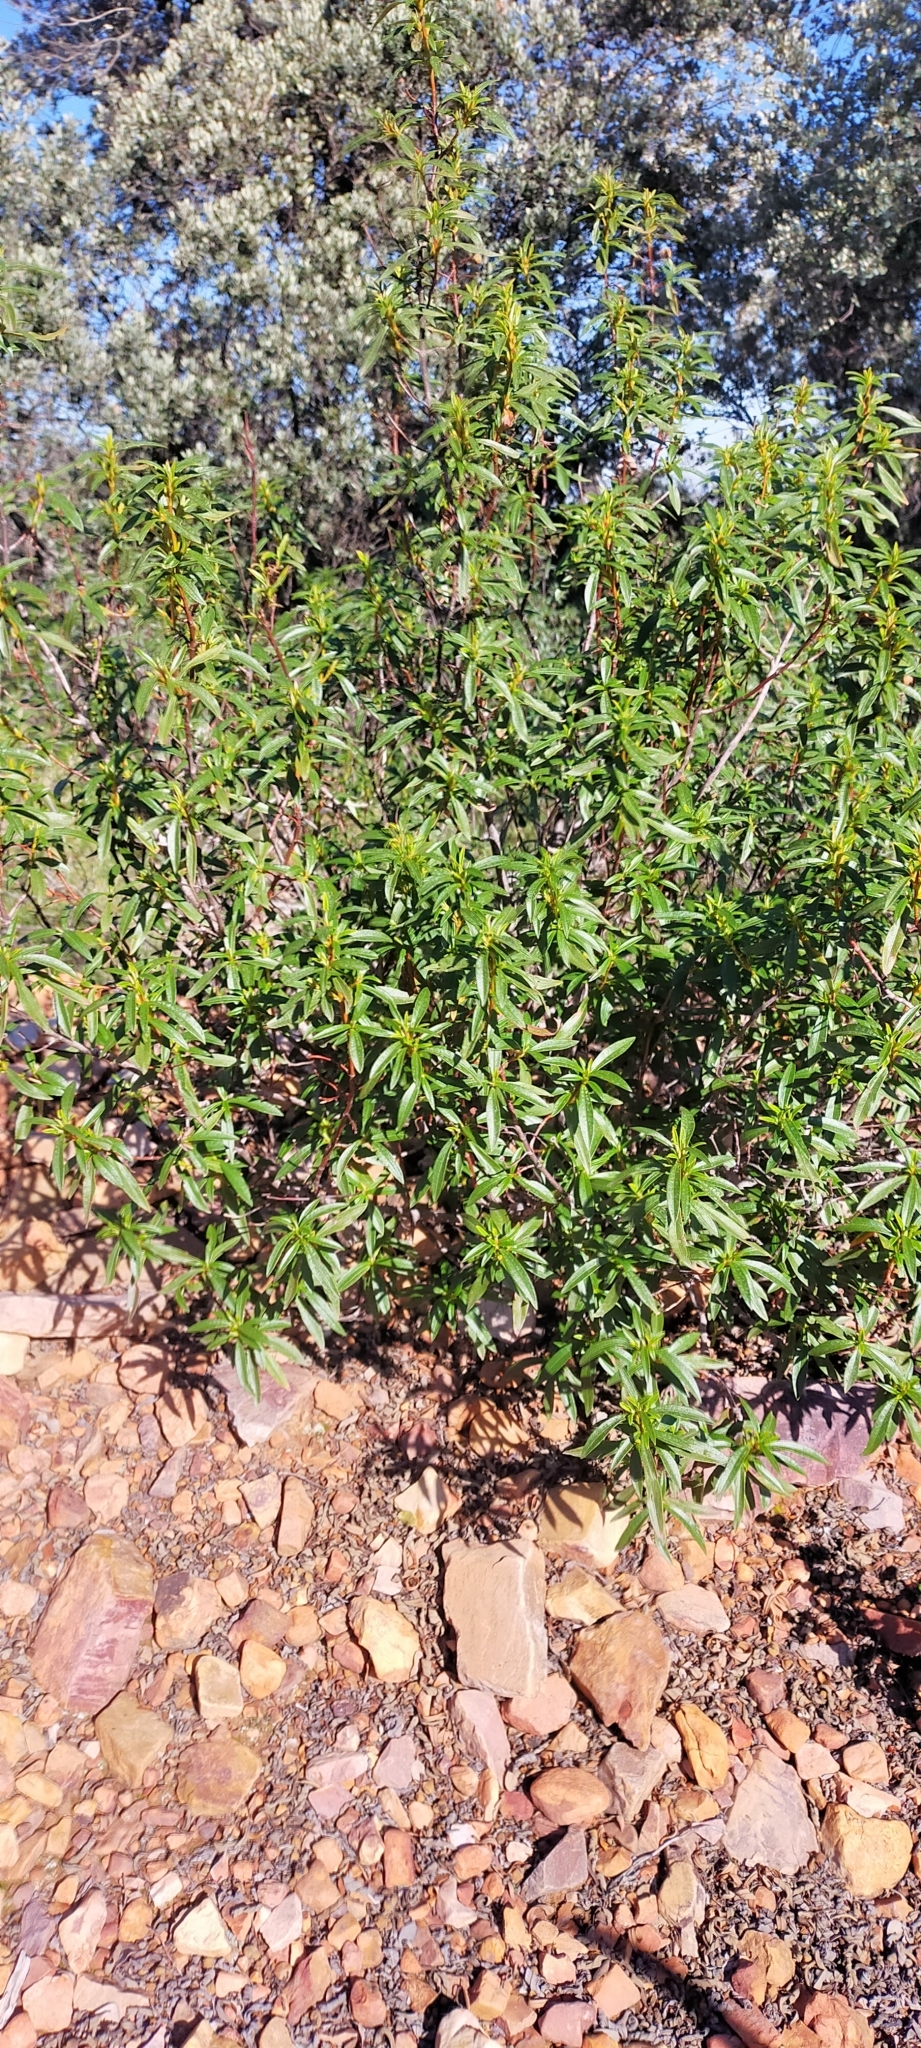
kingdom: Plantae
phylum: Tracheophyta
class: Magnoliopsida
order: Malvales
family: Cistaceae
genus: Cistus
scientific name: Cistus ladanifer
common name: Common gum cistus
